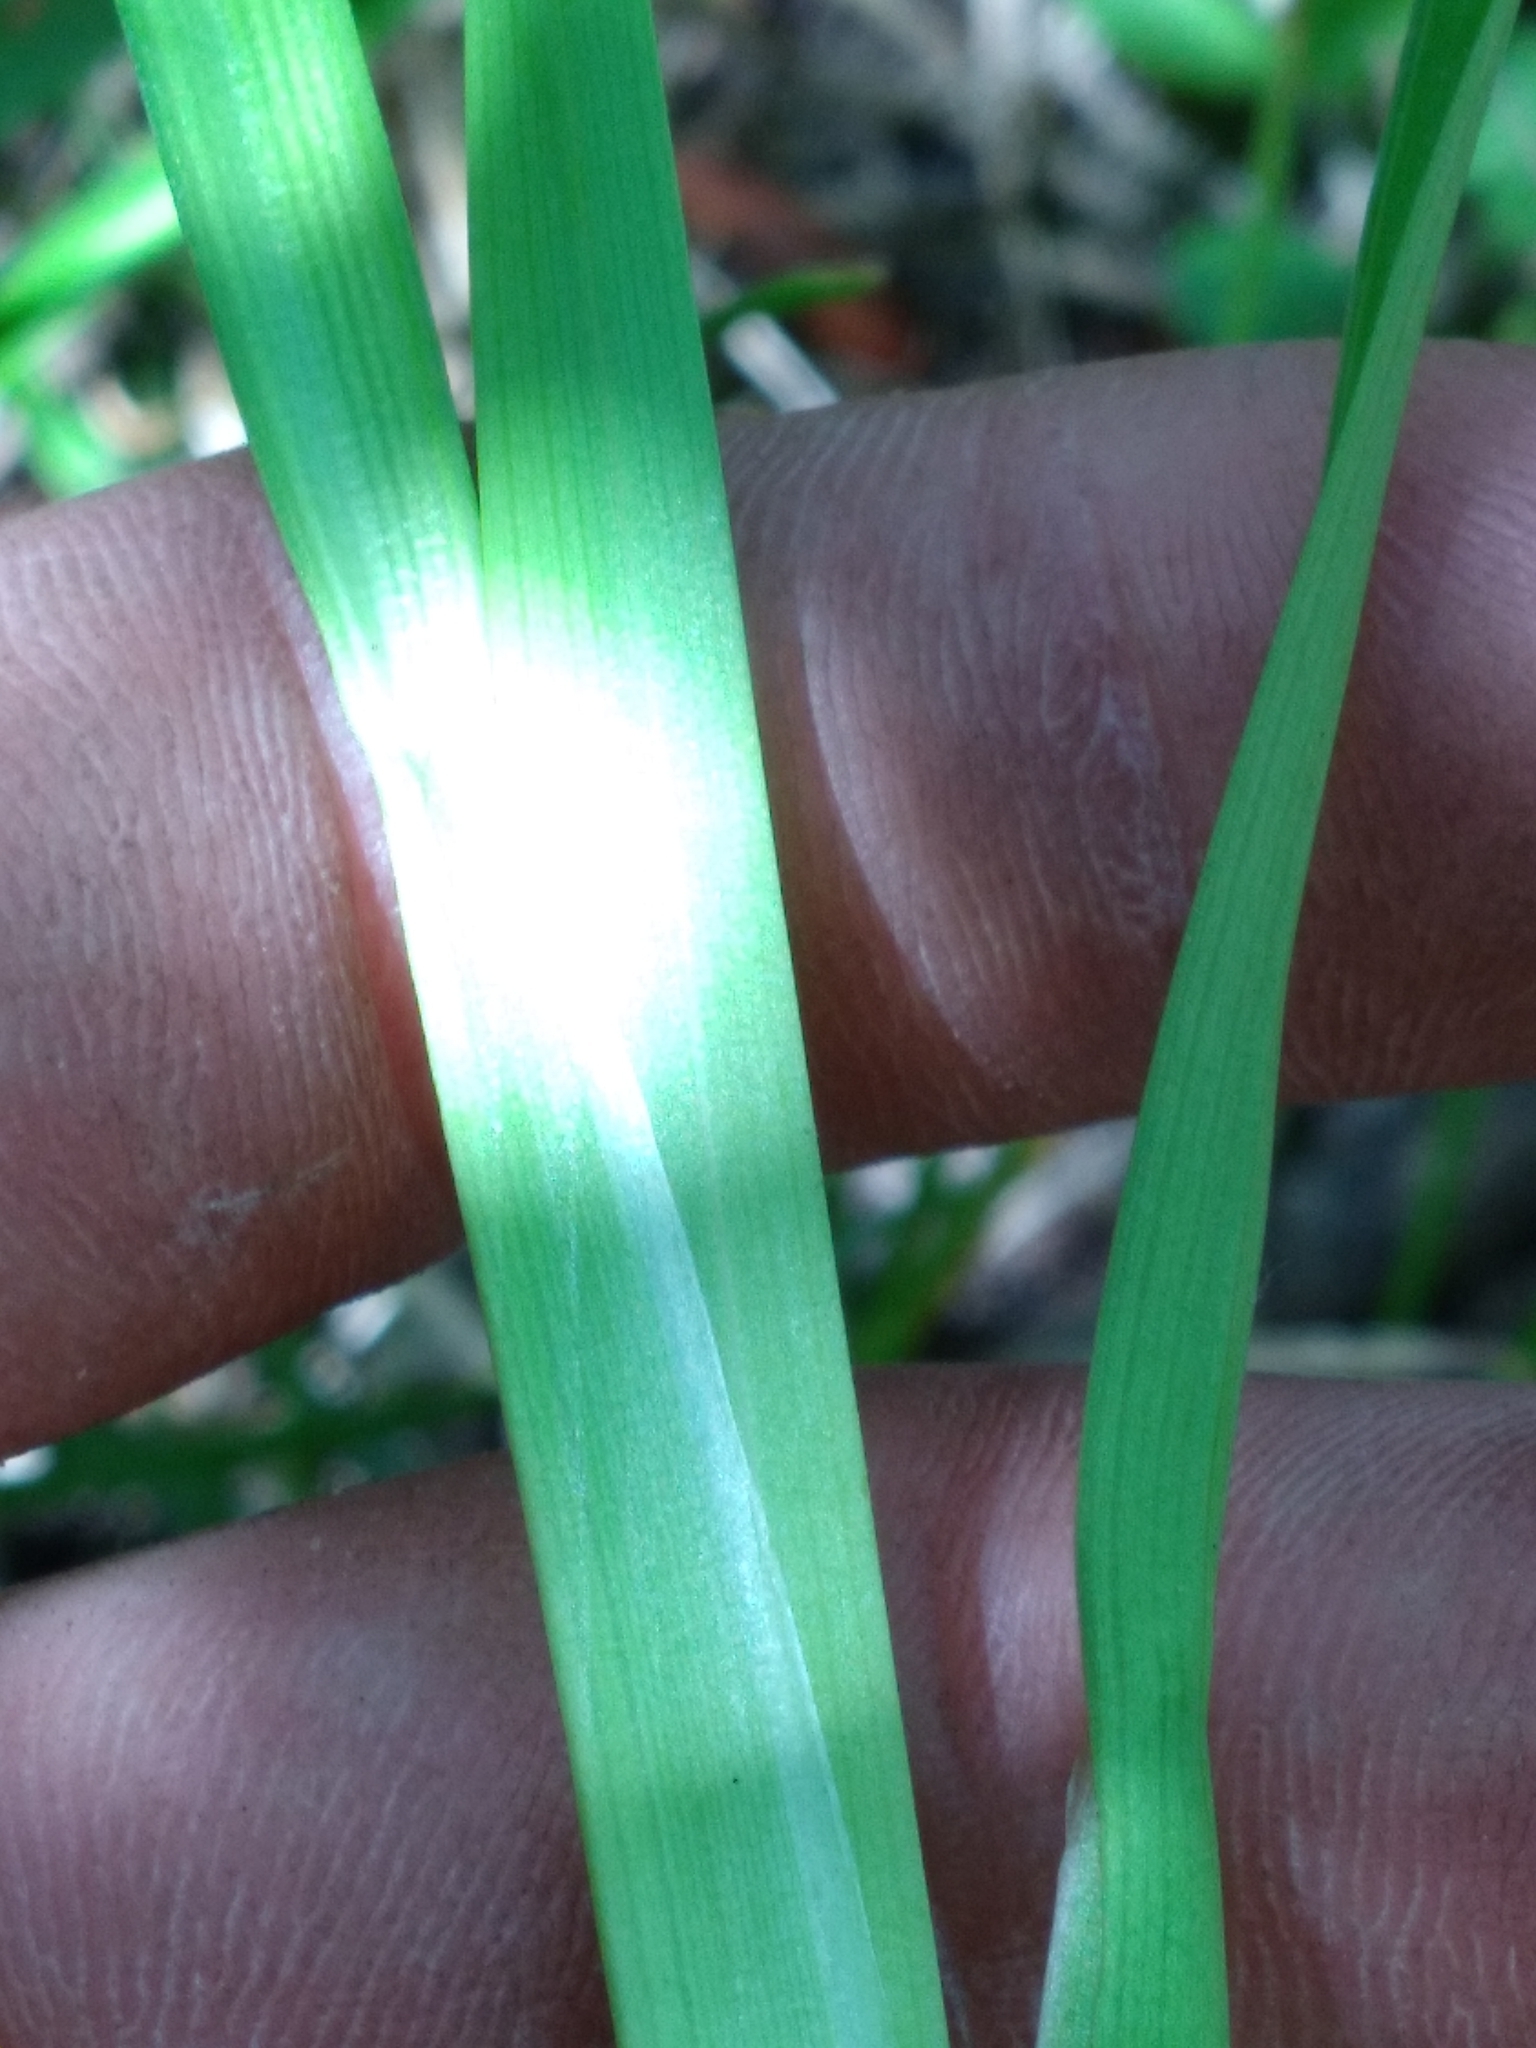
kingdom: Plantae
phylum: Tracheophyta
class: Liliopsida
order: Poales
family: Juncaceae
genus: Juncus
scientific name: Juncus biflorus
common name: Two-flowered rush
